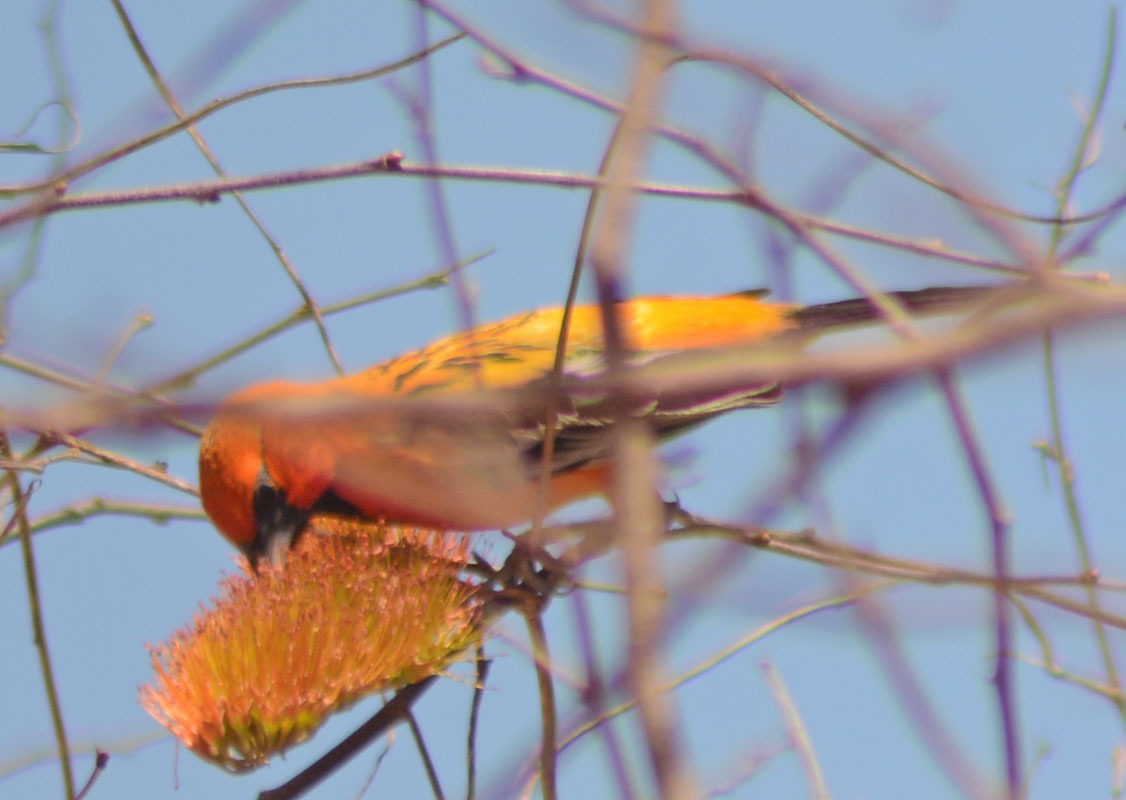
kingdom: Animalia
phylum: Chordata
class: Aves
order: Passeriformes
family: Icteridae
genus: Icterus
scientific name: Icterus pustulatus
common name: Streak-backed oriole
